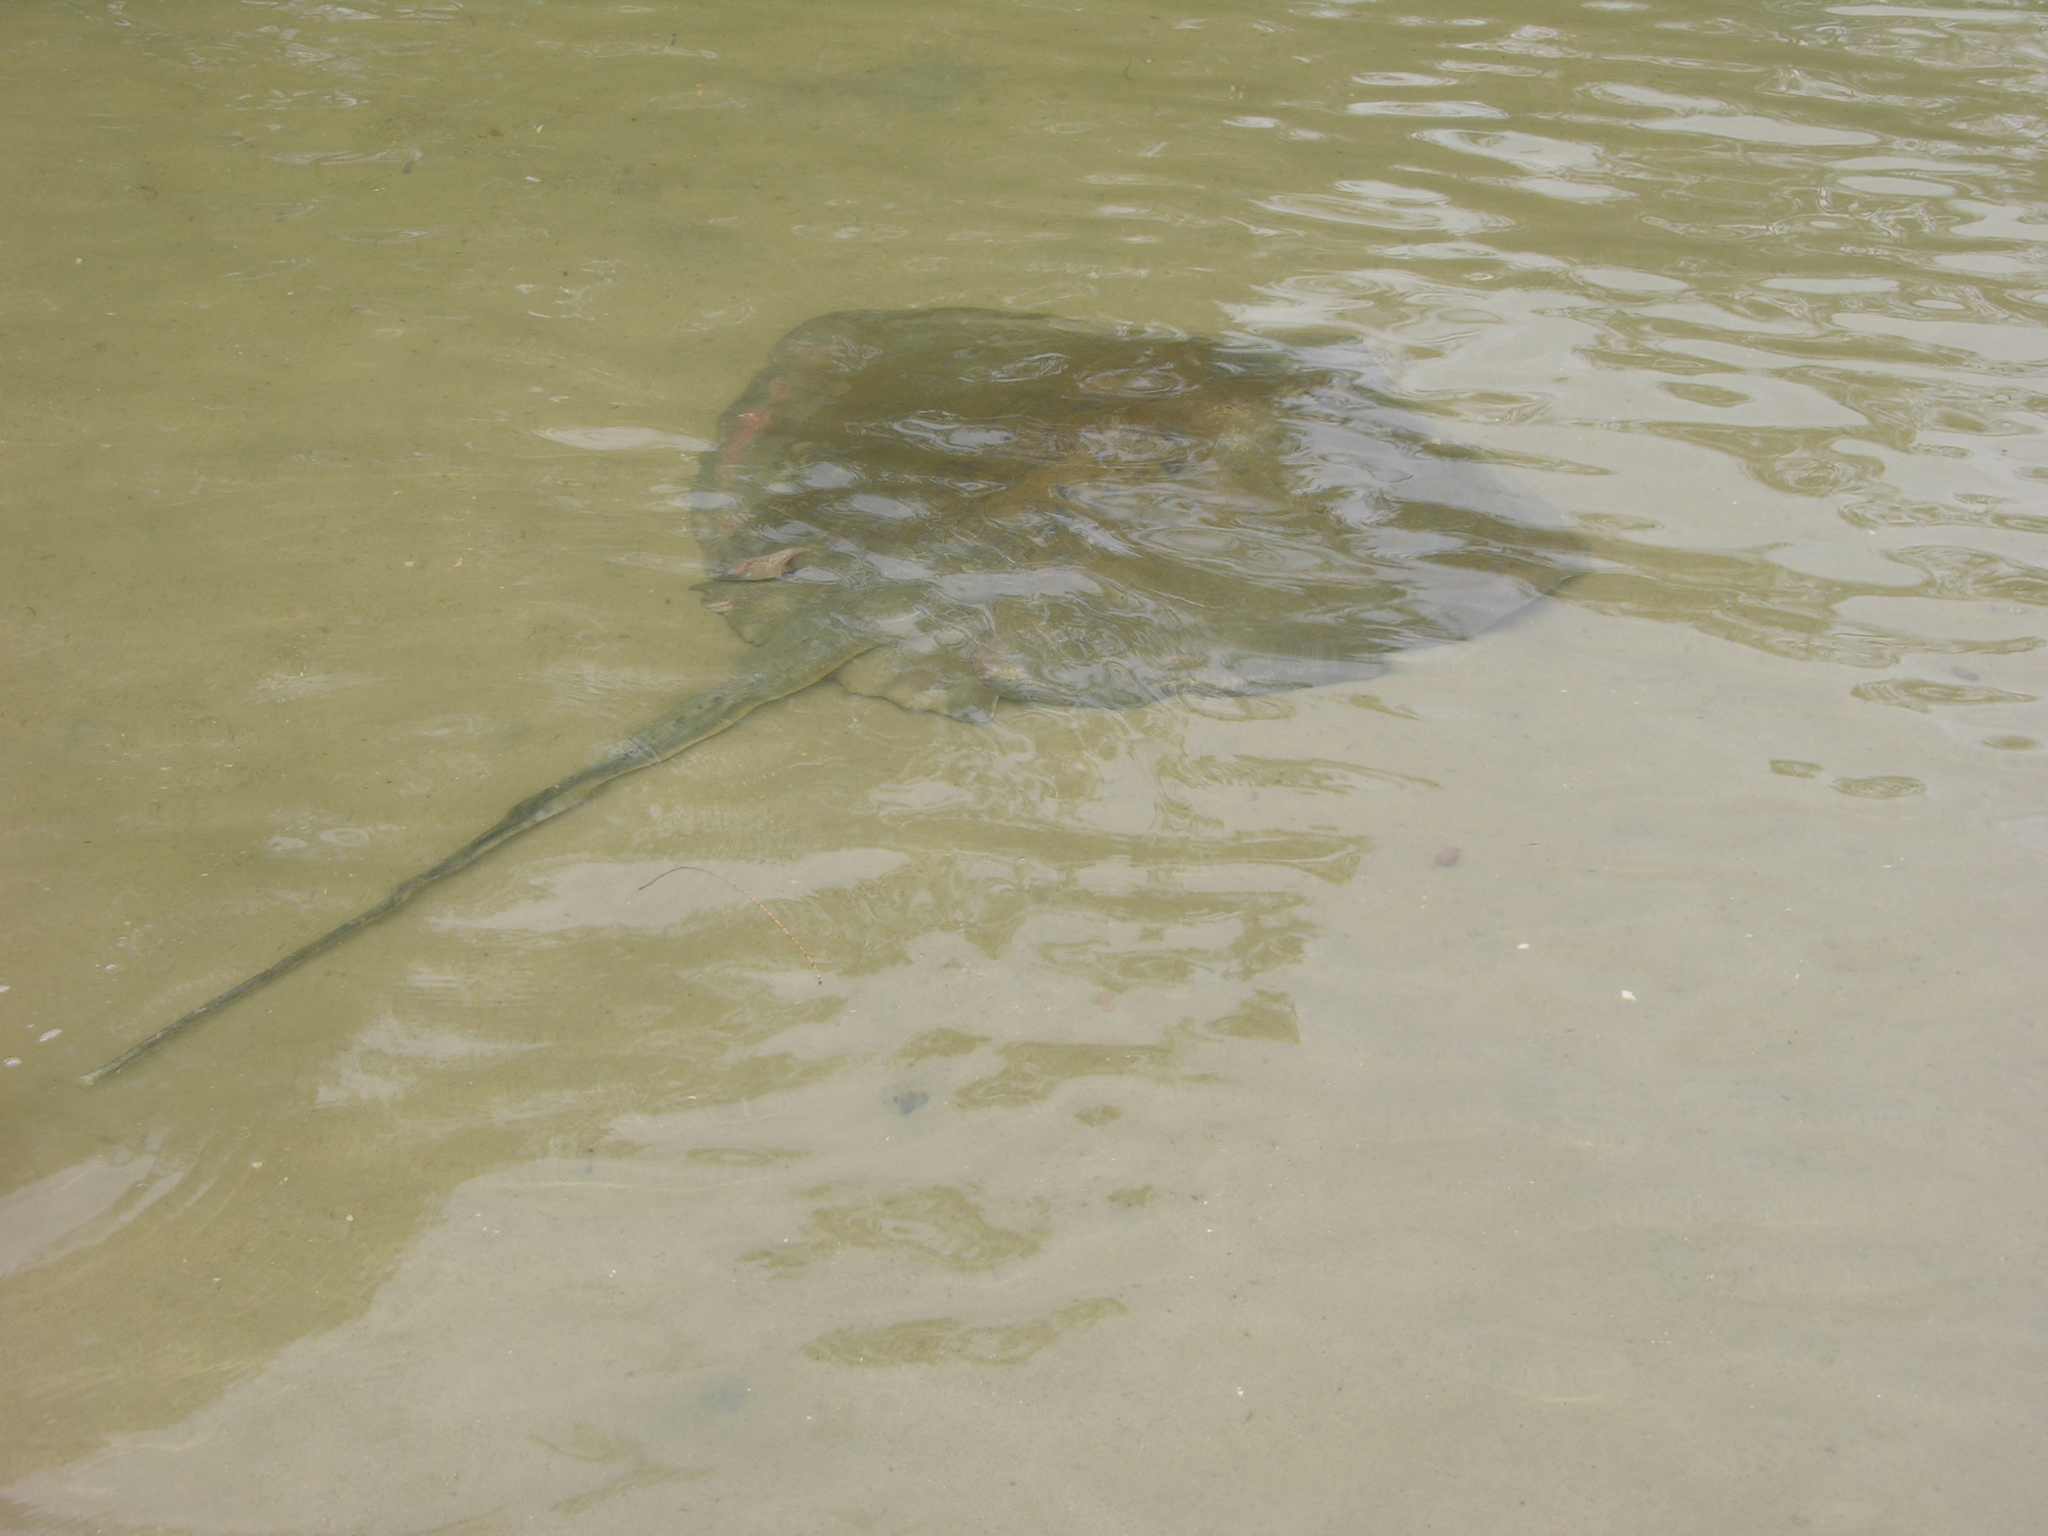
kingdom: Animalia
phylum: Chordata
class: Elasmobranchii
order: Myliobatiformes
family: Dasyatidae
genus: Hemitrygon
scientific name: Hemitrygon fluviorum
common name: Estuary stingray
